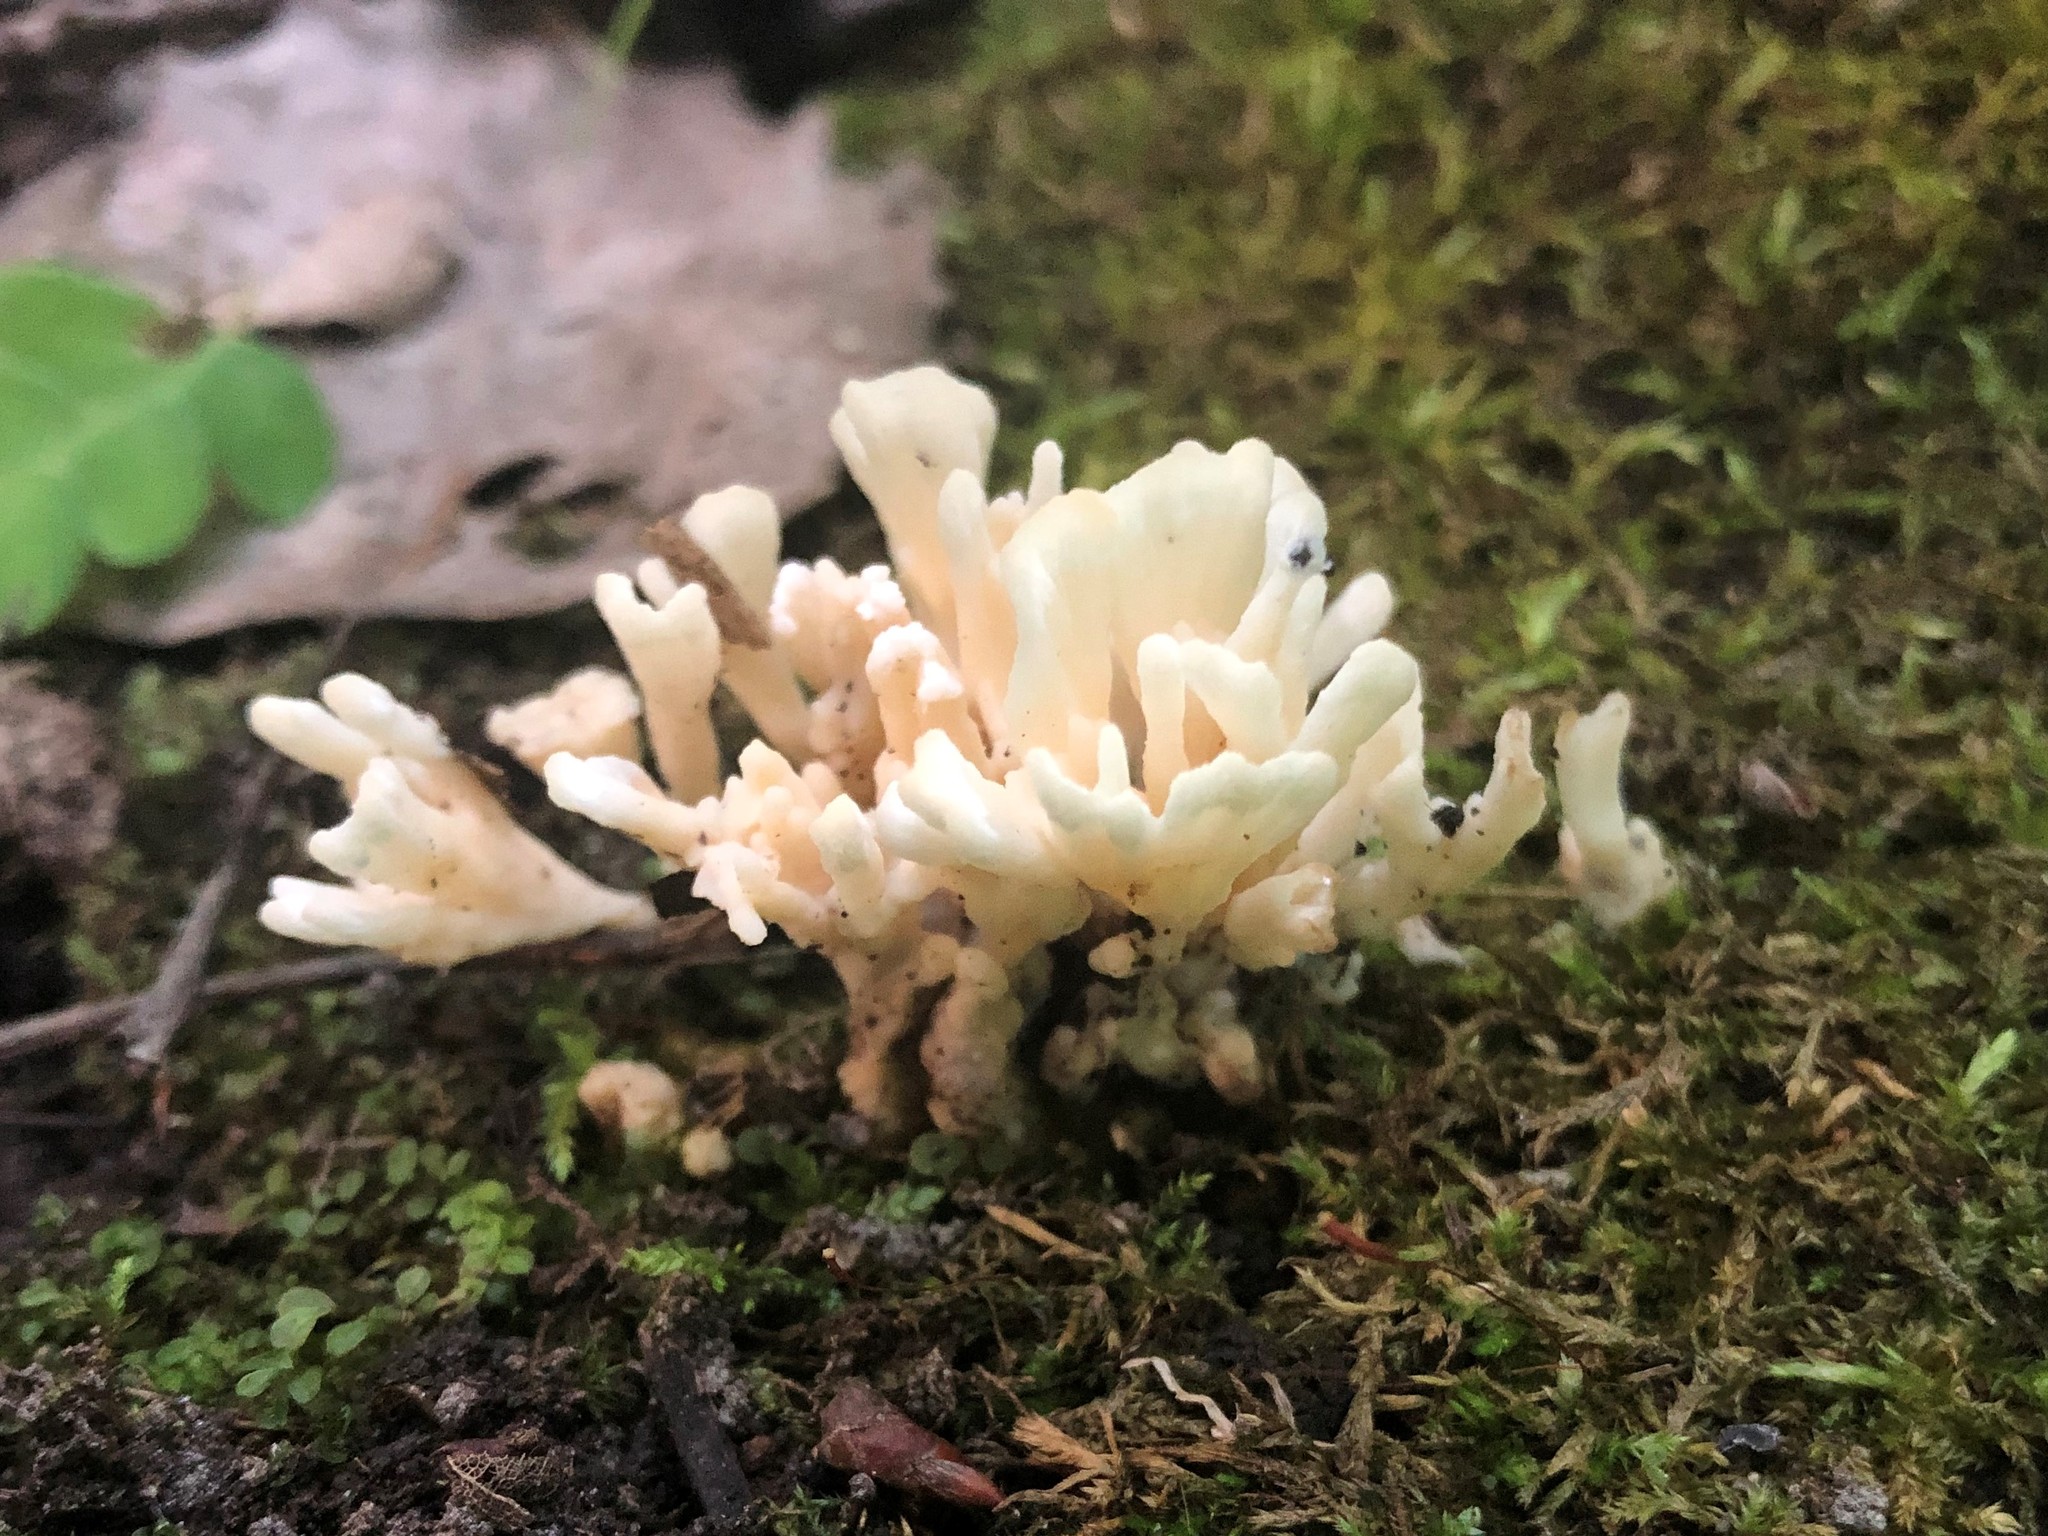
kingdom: Fungi
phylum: Basidiomycota
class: Agaricomycetes
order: Sebacinales
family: Sebacinaceae
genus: Sebacina
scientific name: Sebacina schweinitzii
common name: Jellied false coral fungus
